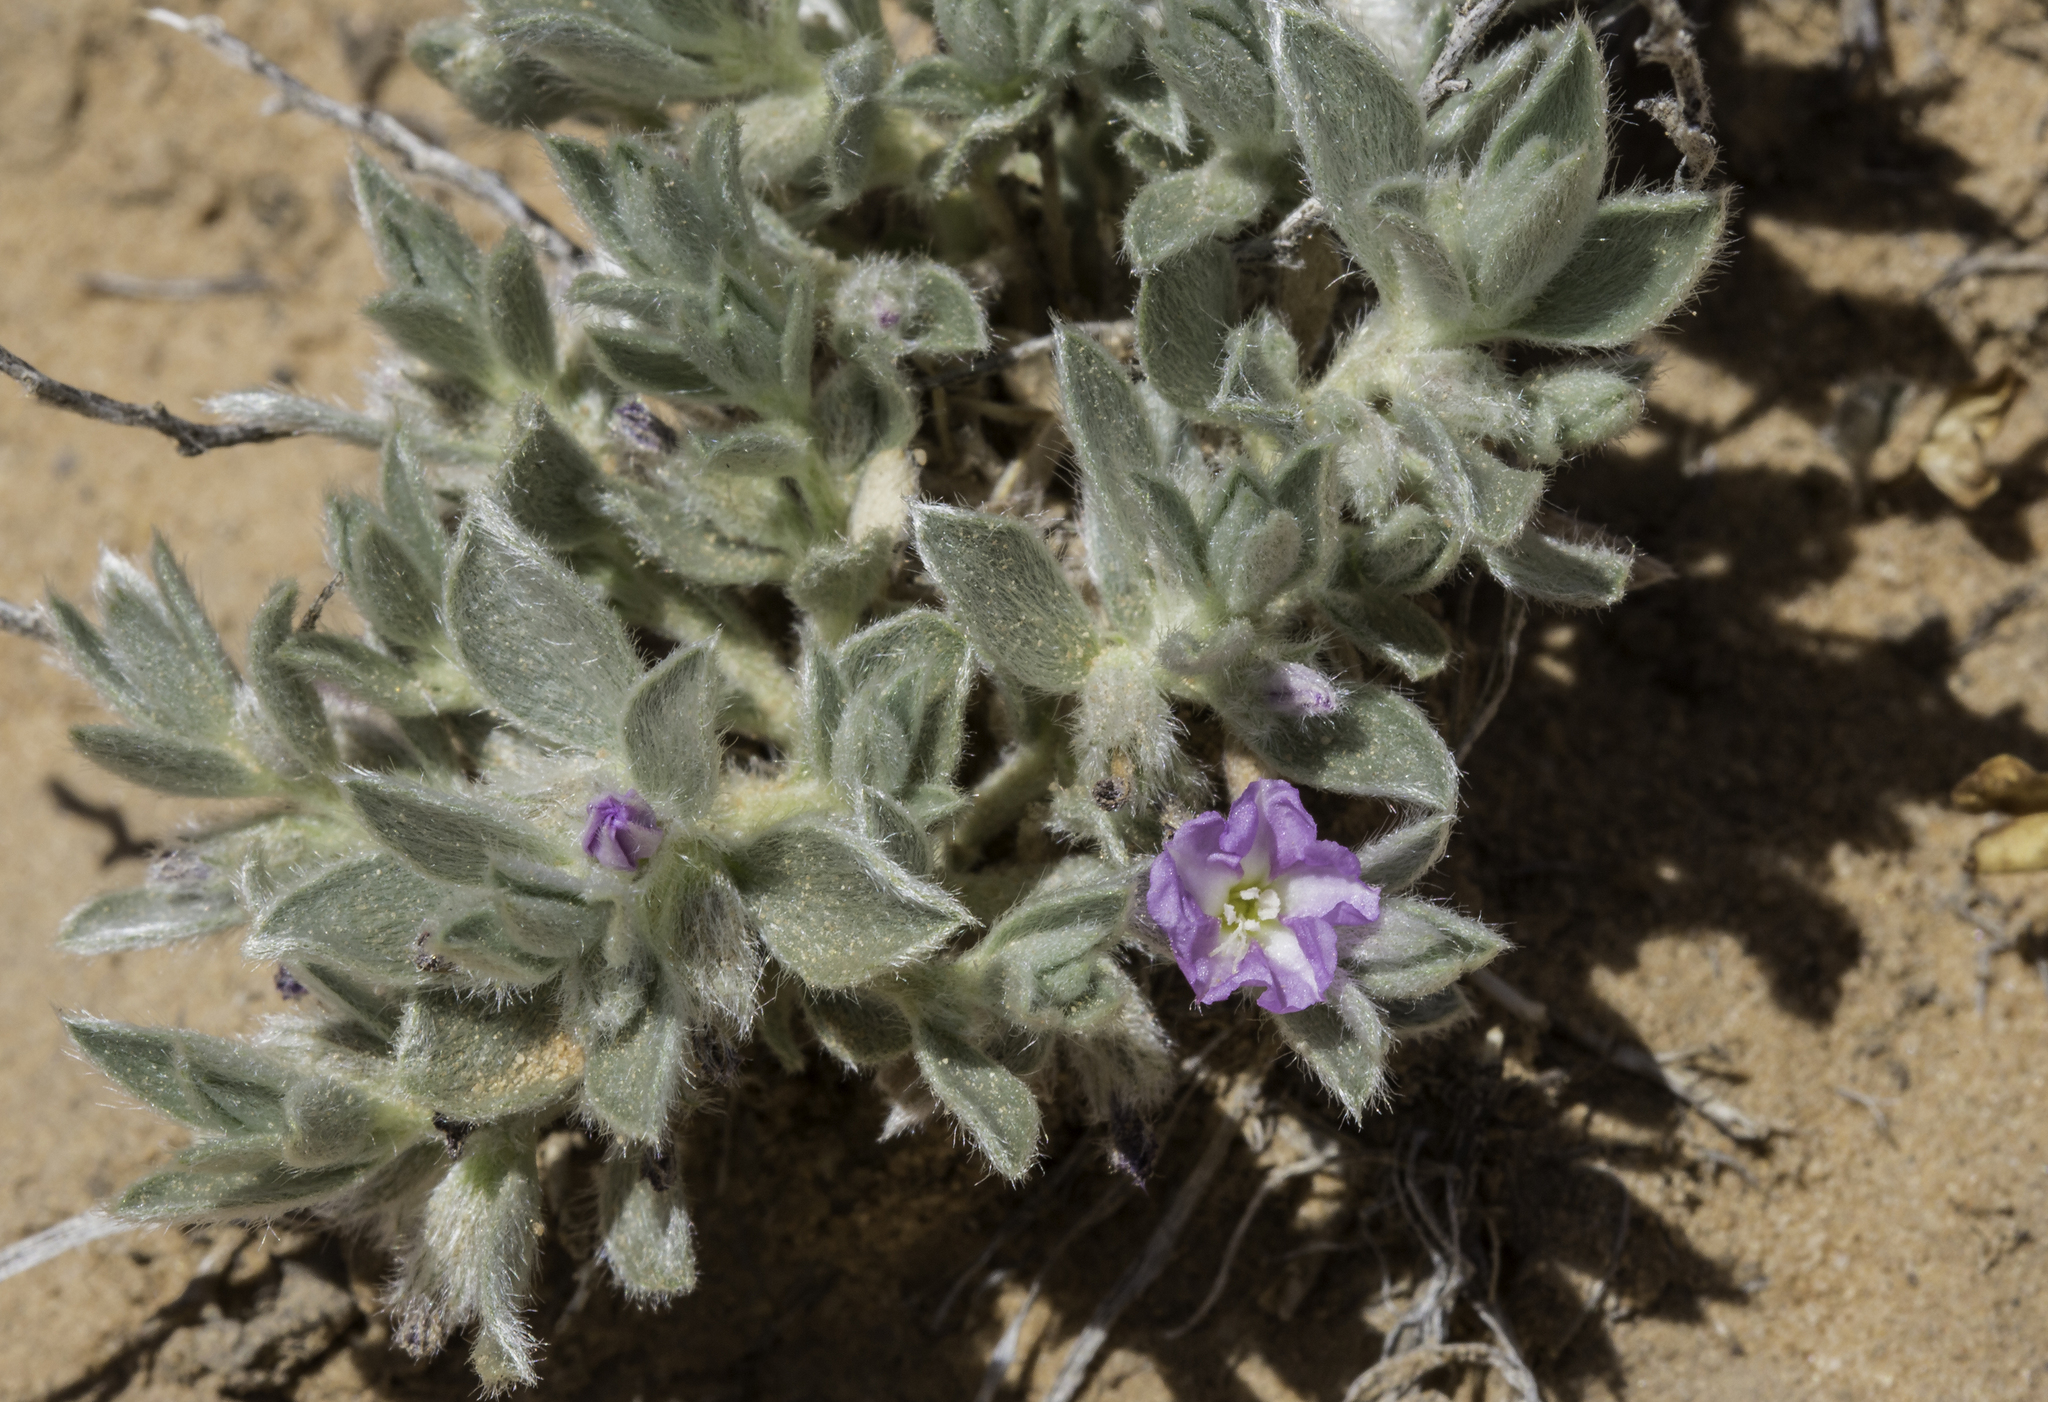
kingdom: Plantae
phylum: Tracheophyta
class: Magnoliopsida
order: Solanales
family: Convolvulaceae
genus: Evolvulus
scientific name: Evolvulus nuttallianus
